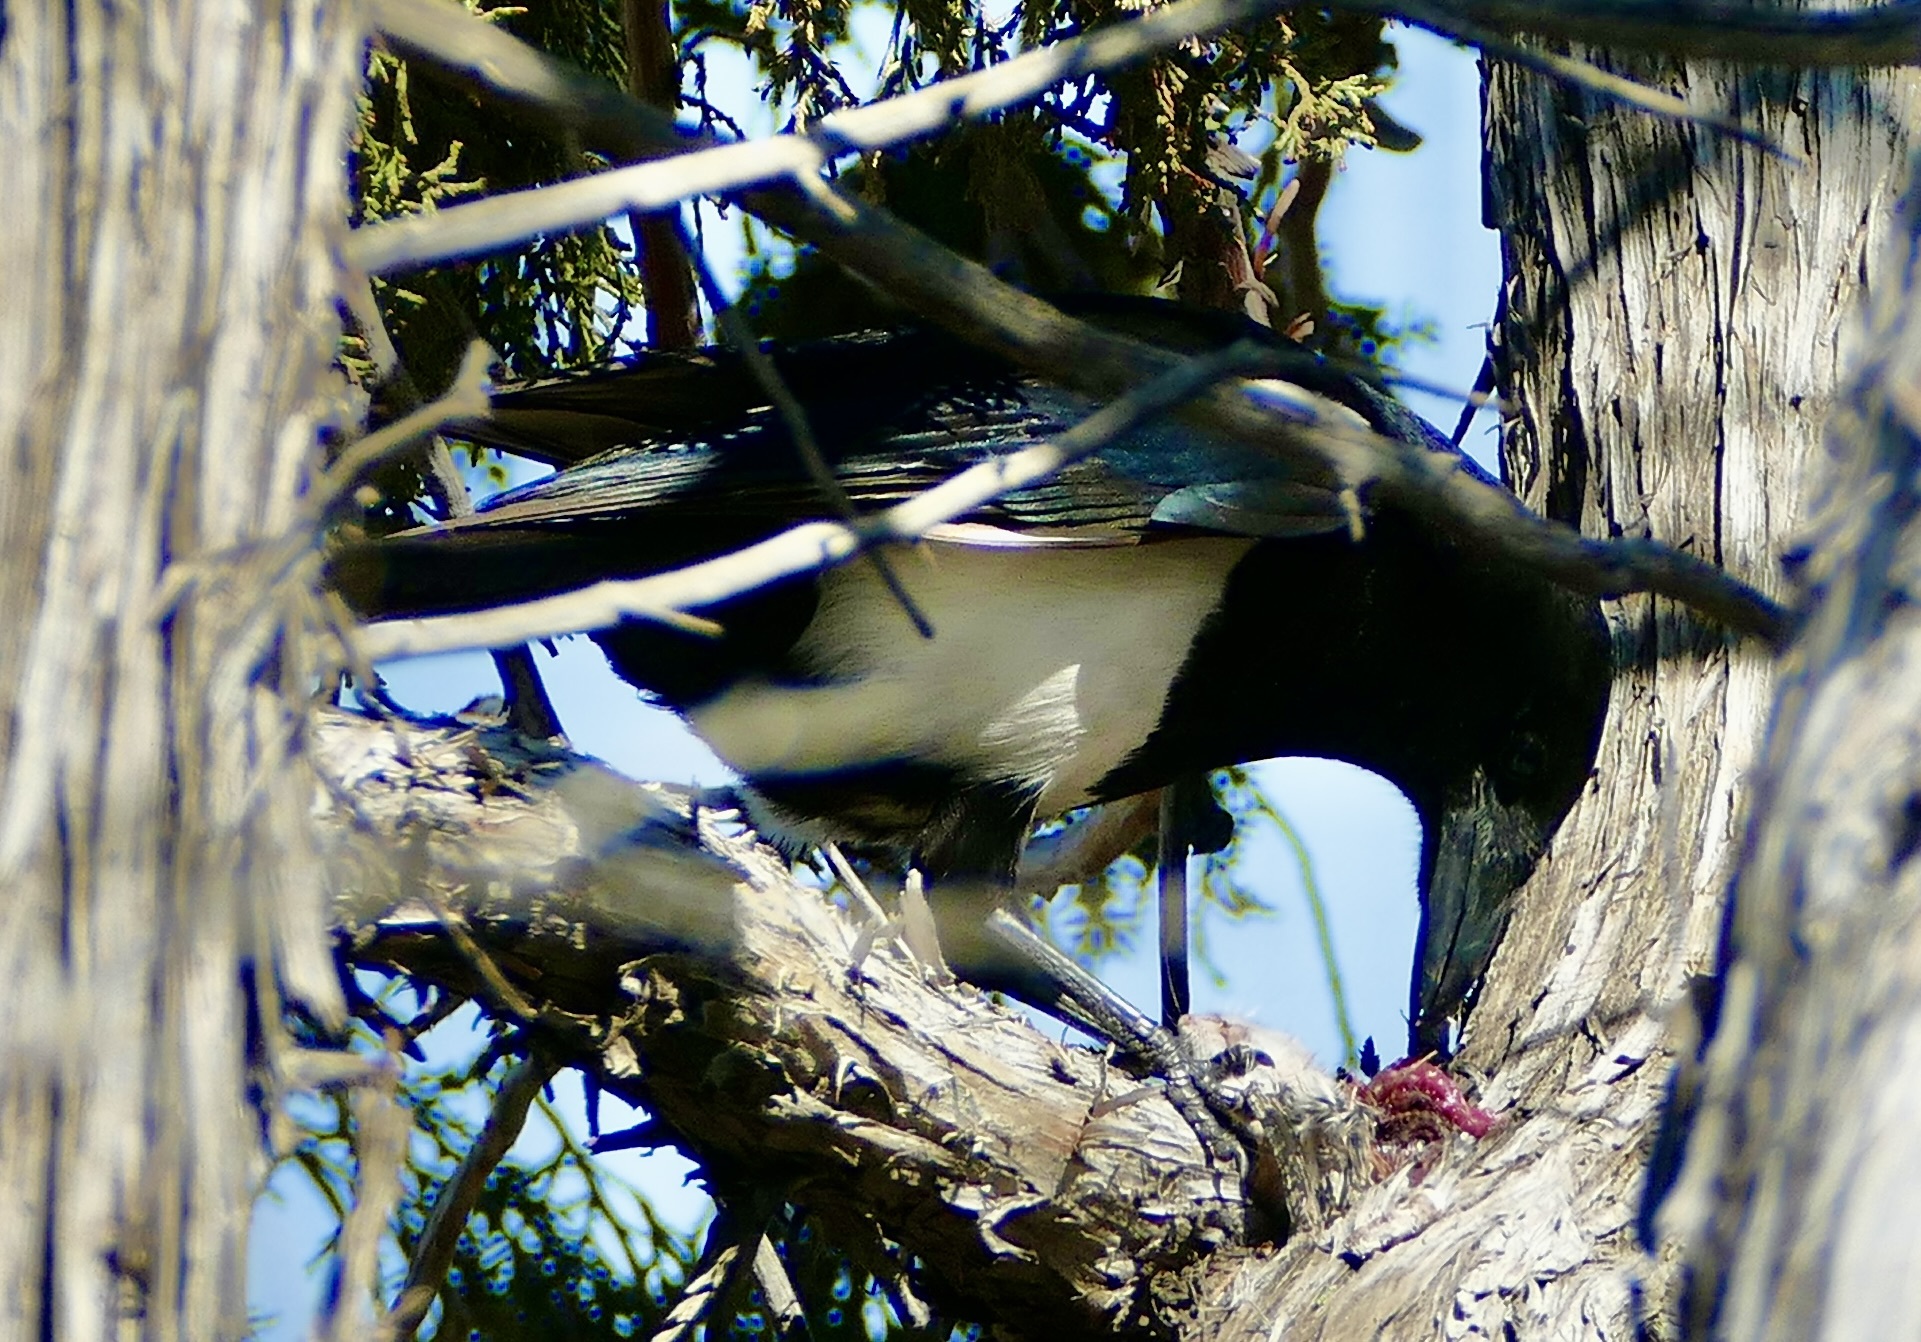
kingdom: Animalia
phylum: Chordata
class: Aves
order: Passeriformes
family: Corvidae
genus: Pica
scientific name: Pica hudsonia
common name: Black-billed magpie
